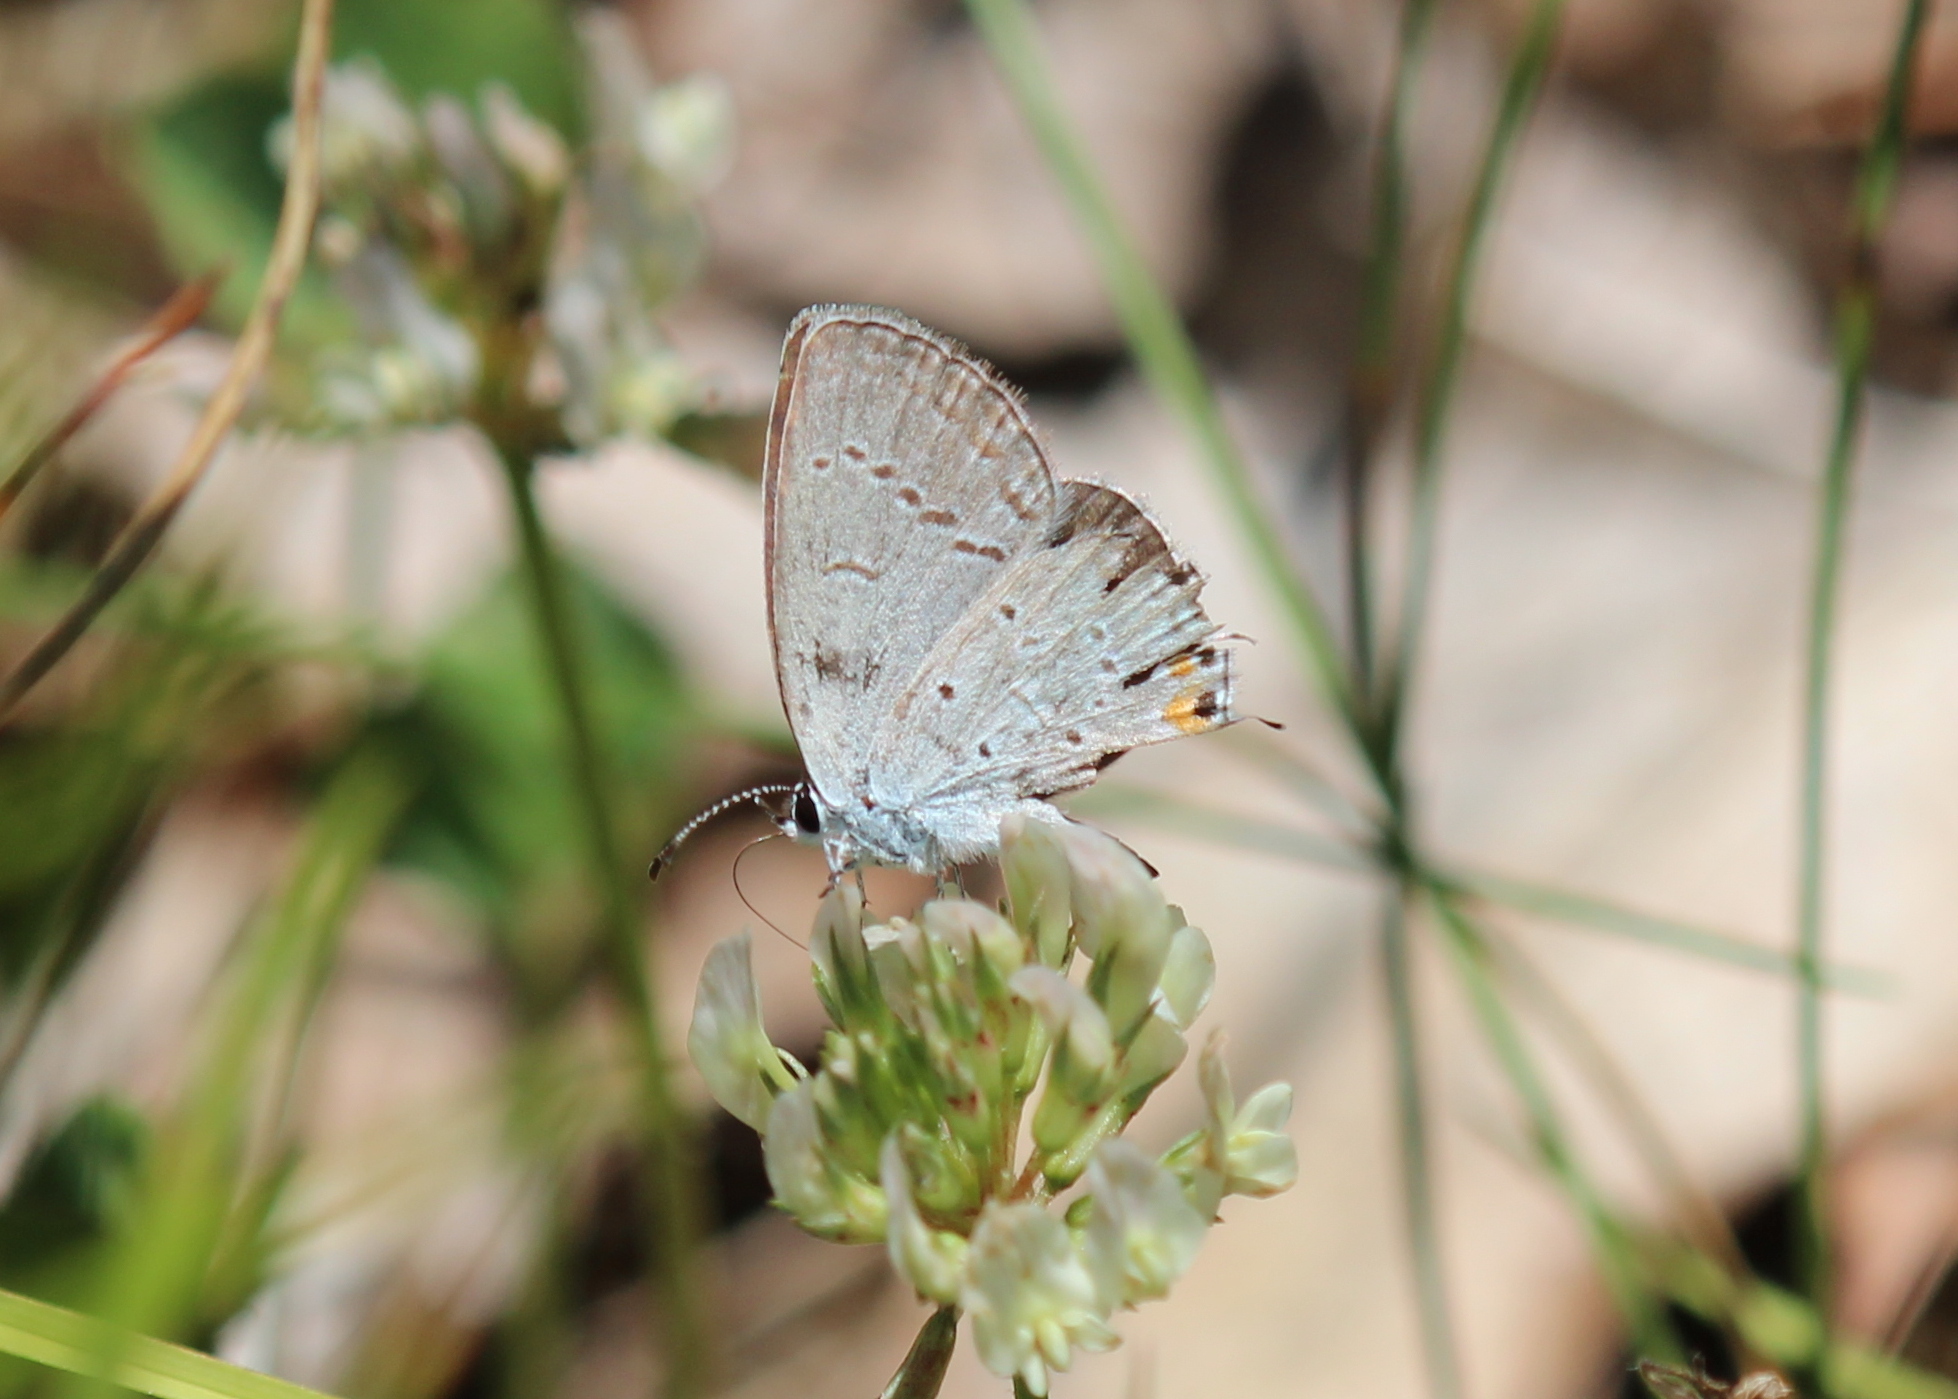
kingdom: Animalia
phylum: Arthropoda
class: Insecta
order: Lepidoptera
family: Lycaenidae
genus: Elkalyce
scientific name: Elkalyce comyntas
